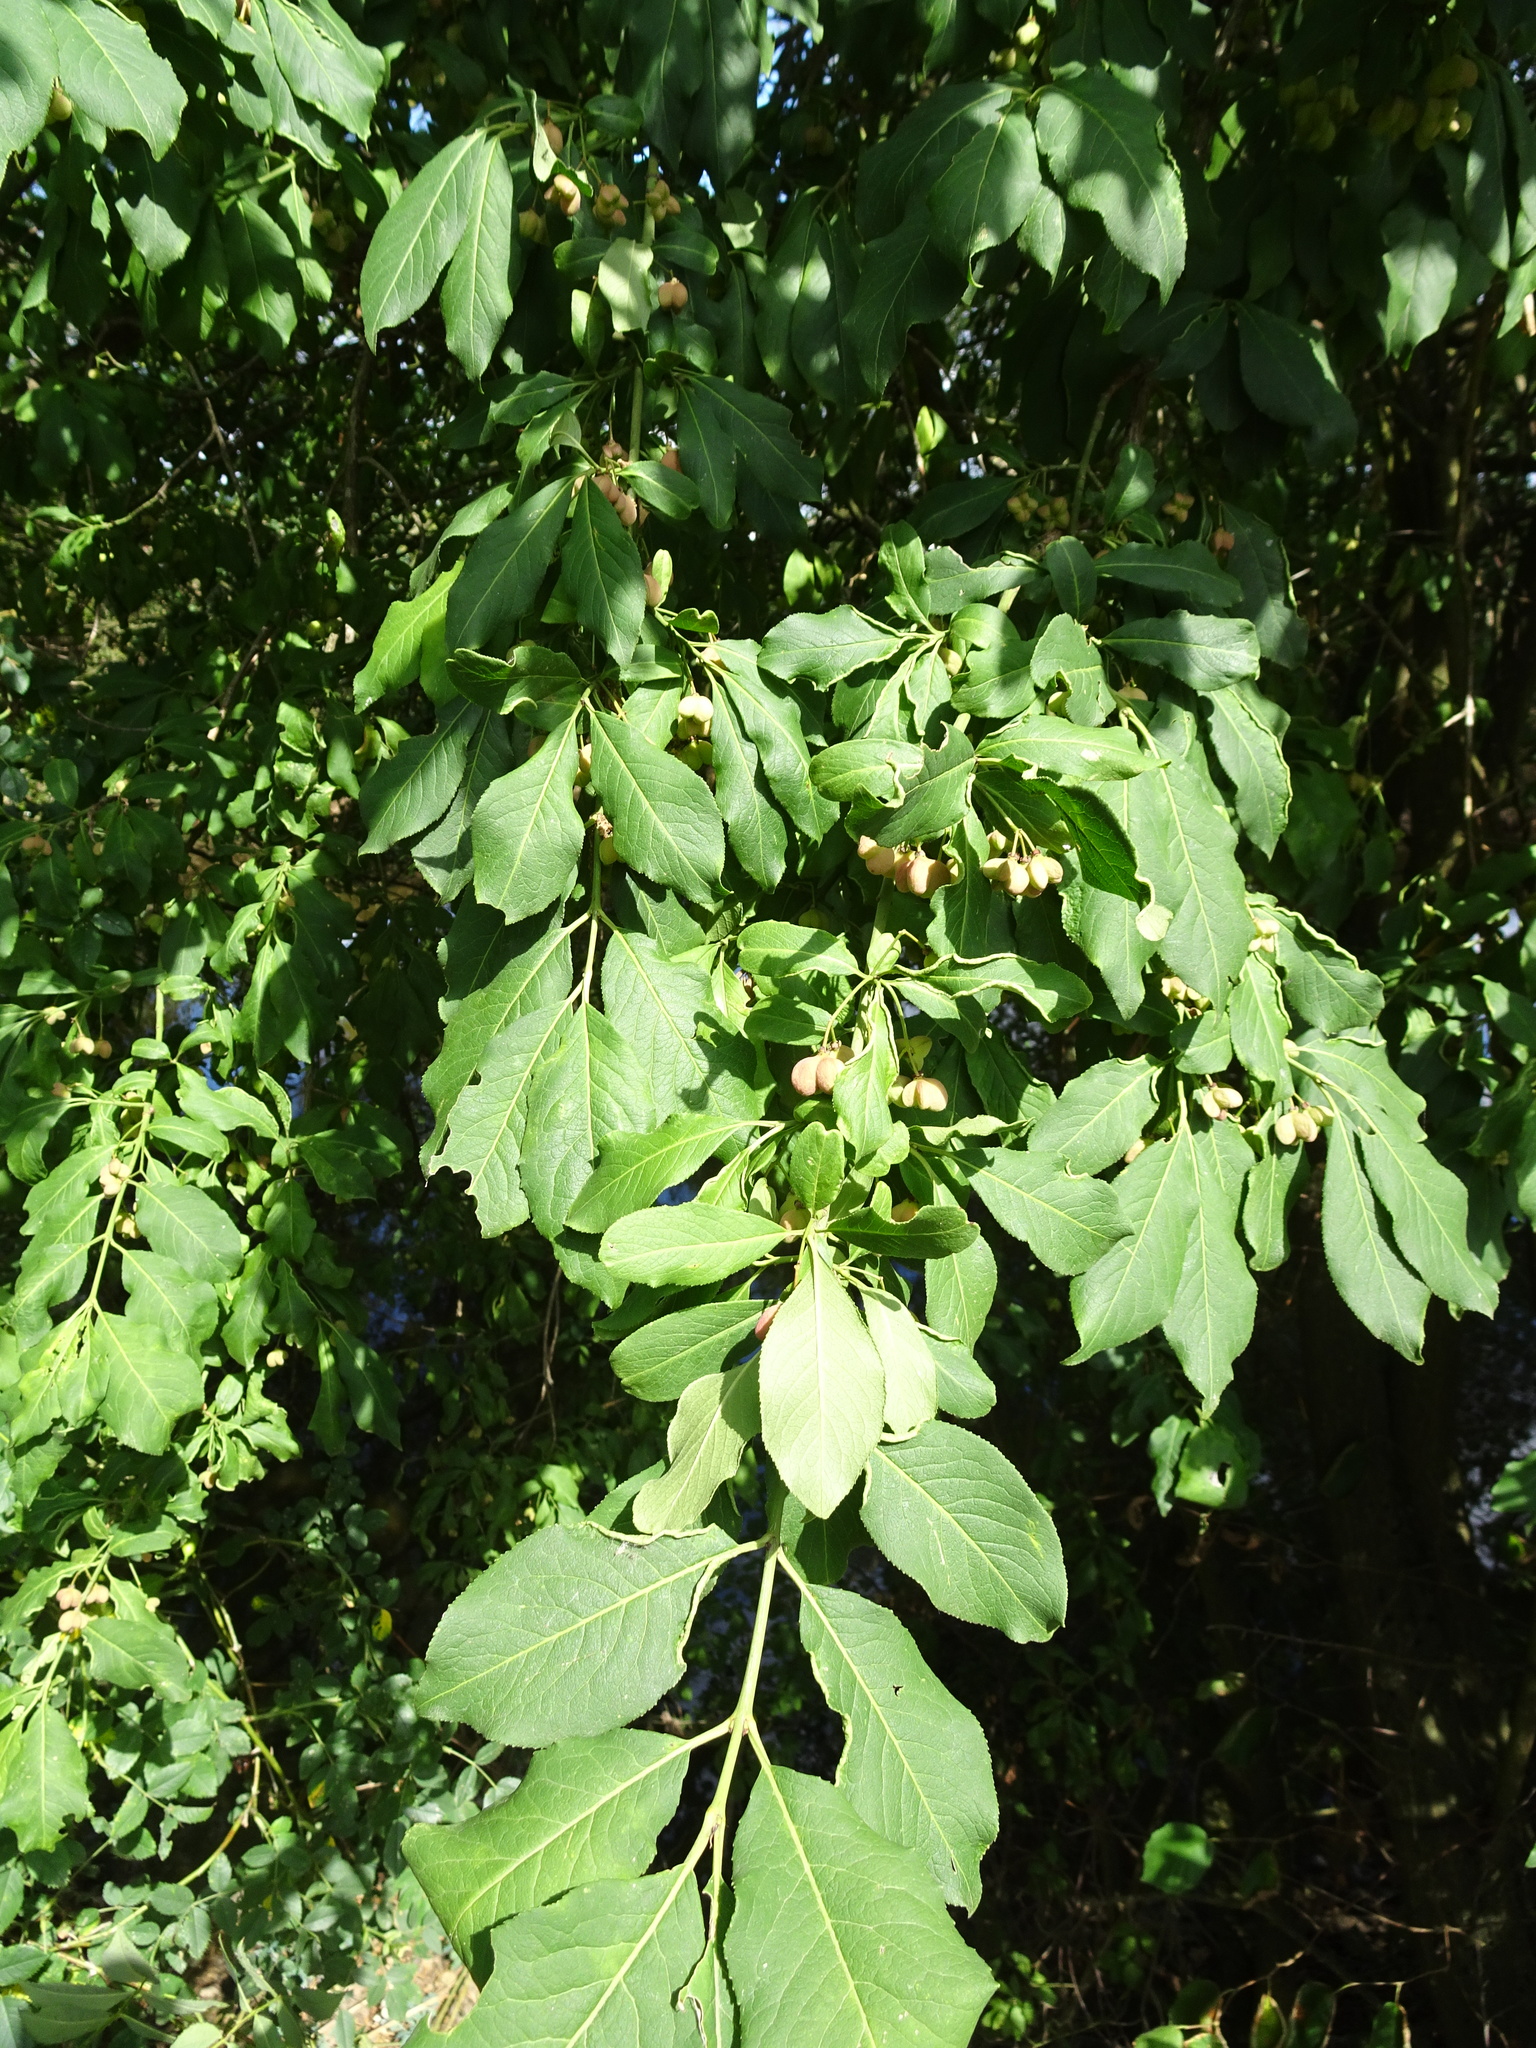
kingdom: Plantae
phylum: Tracheophyta
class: Magnoliopsida
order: Celastrales
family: Celastraceae
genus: Euonymus
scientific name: Euonymus europaeus
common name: Spindle
